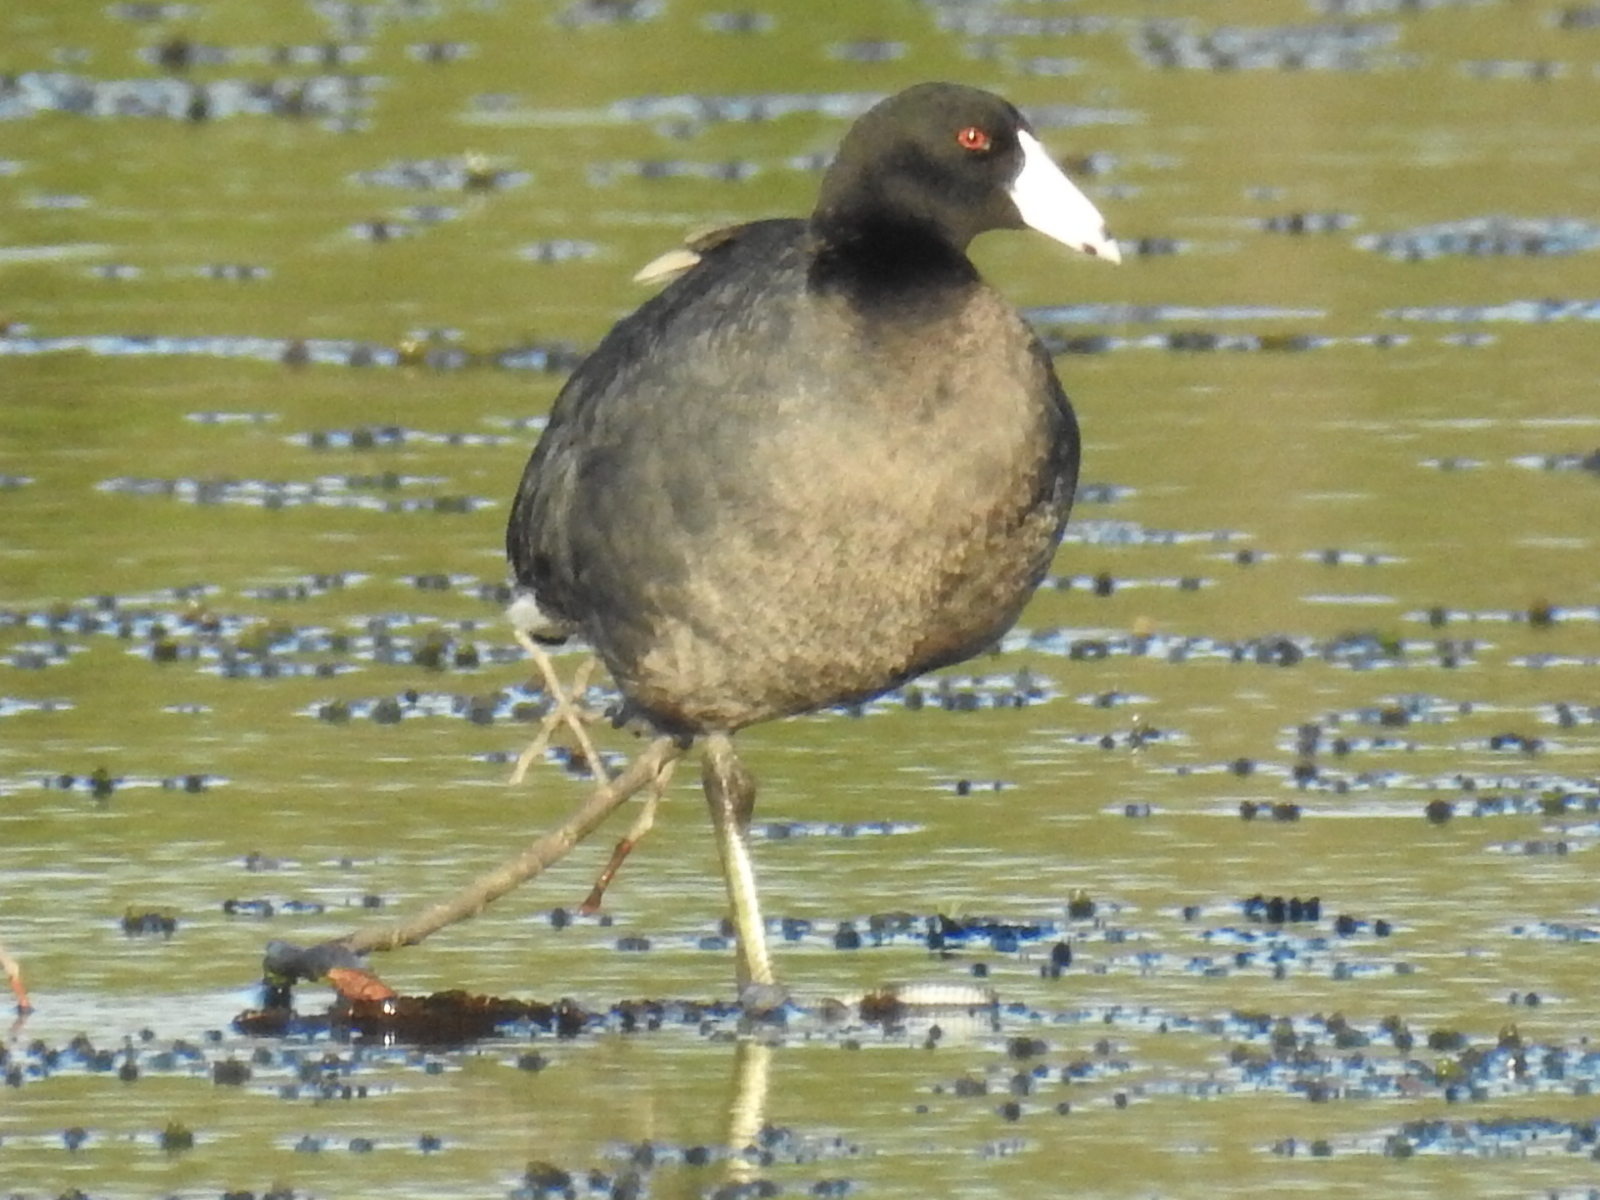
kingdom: Animalia
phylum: Chordata
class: Aves
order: Gruiformes
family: Rallidae
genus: Fulica
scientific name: Fulica americana
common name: American coot
